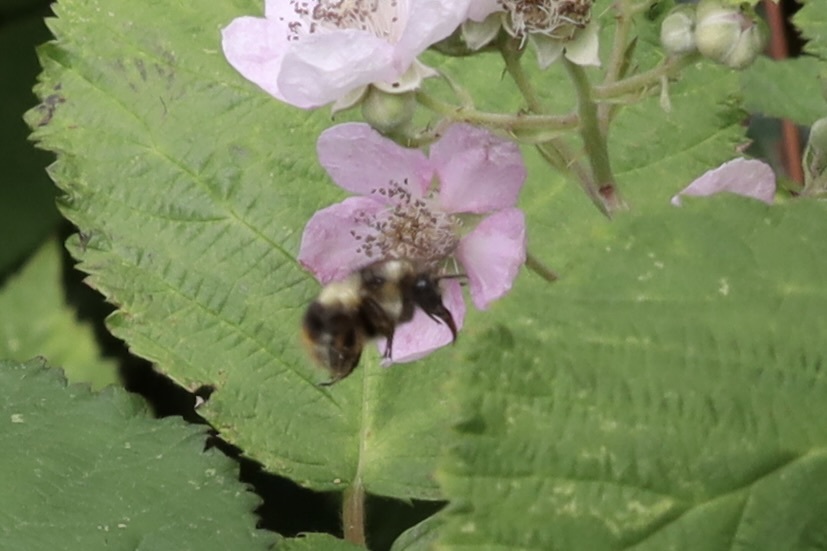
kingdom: Animalia
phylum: Arthropoda
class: Insecta
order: Hymenoptera
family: Apidae
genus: Bombus
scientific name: Bombus mixtus
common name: Fuzzy-horned bumble bee
